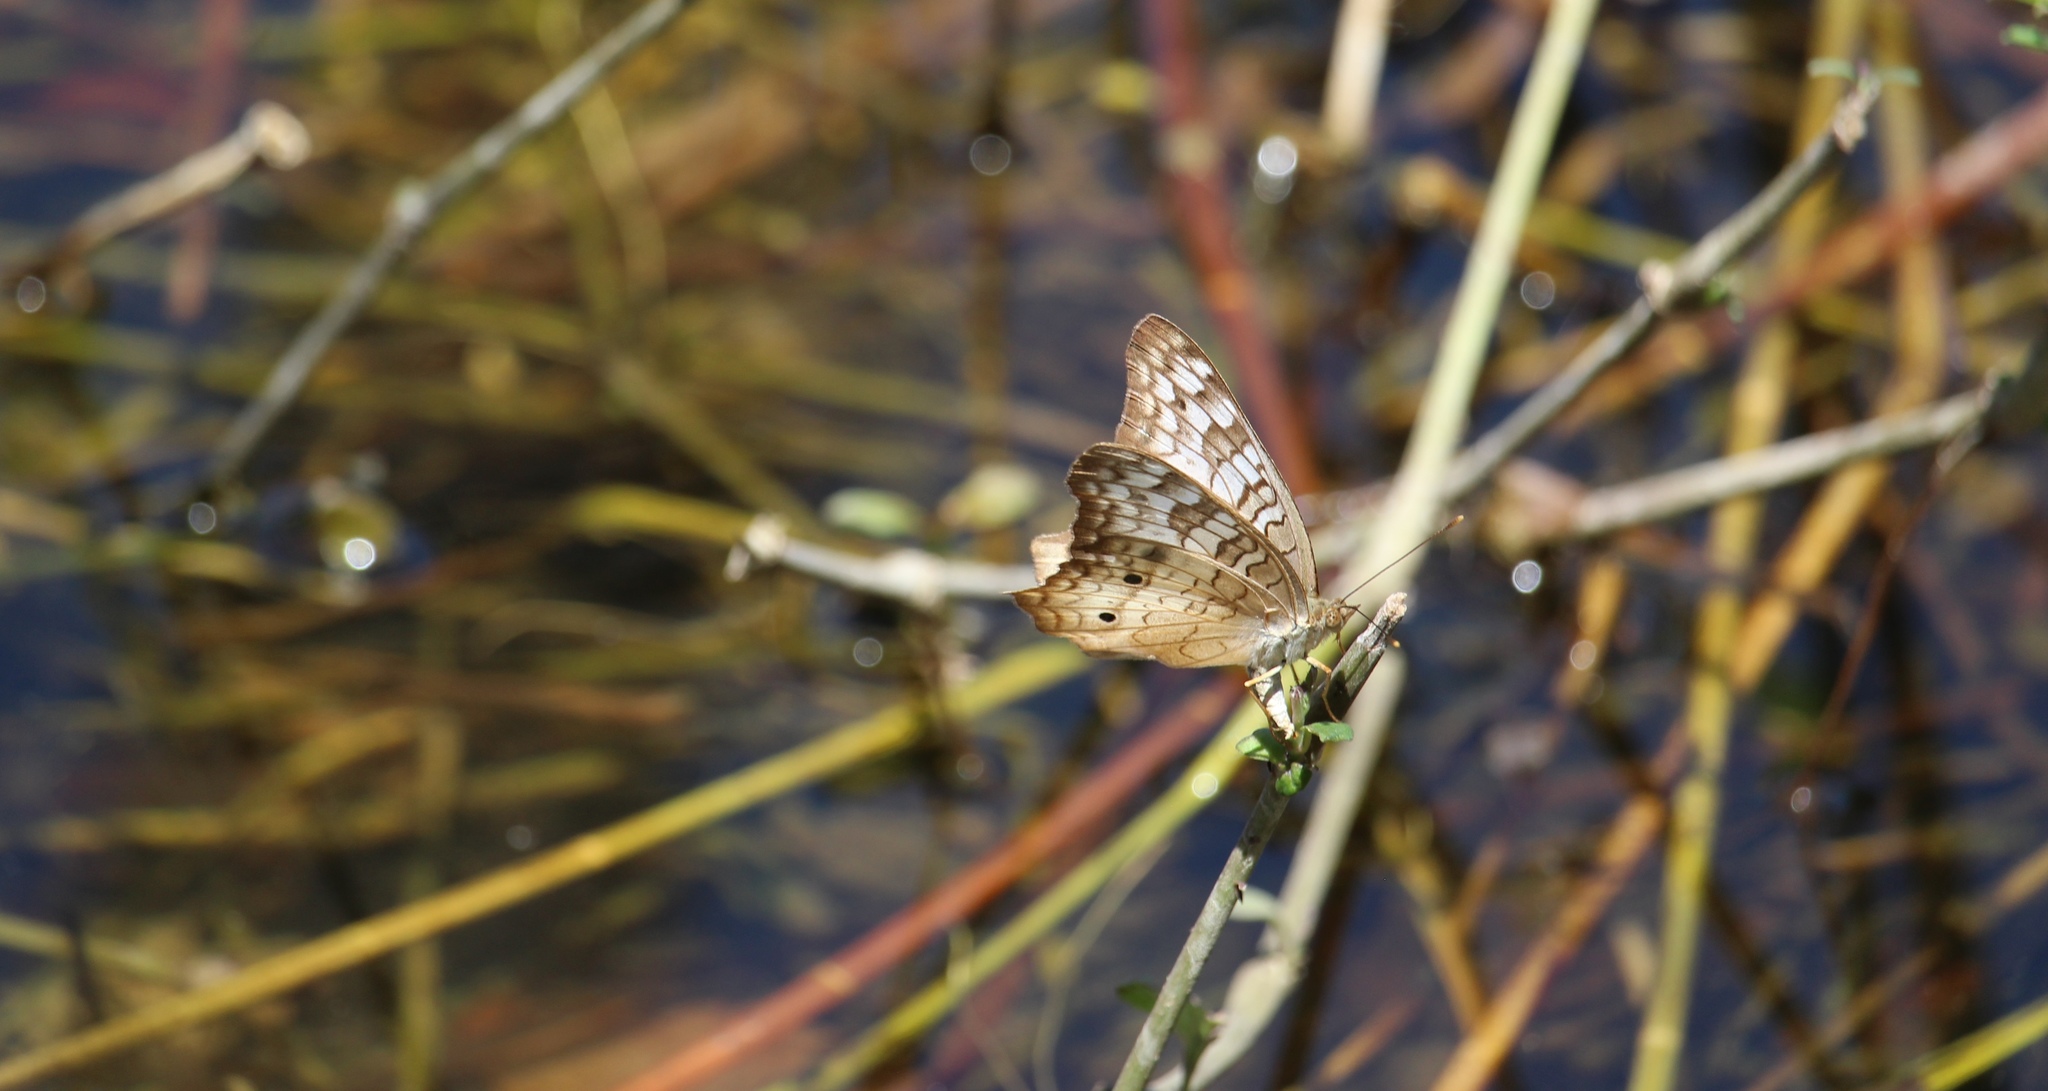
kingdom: Animalia
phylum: Arthropoda
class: Insecta
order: Lepidoptera
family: Nymphalidae
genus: Anartia
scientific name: Anartia jatrophae
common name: White peacock
